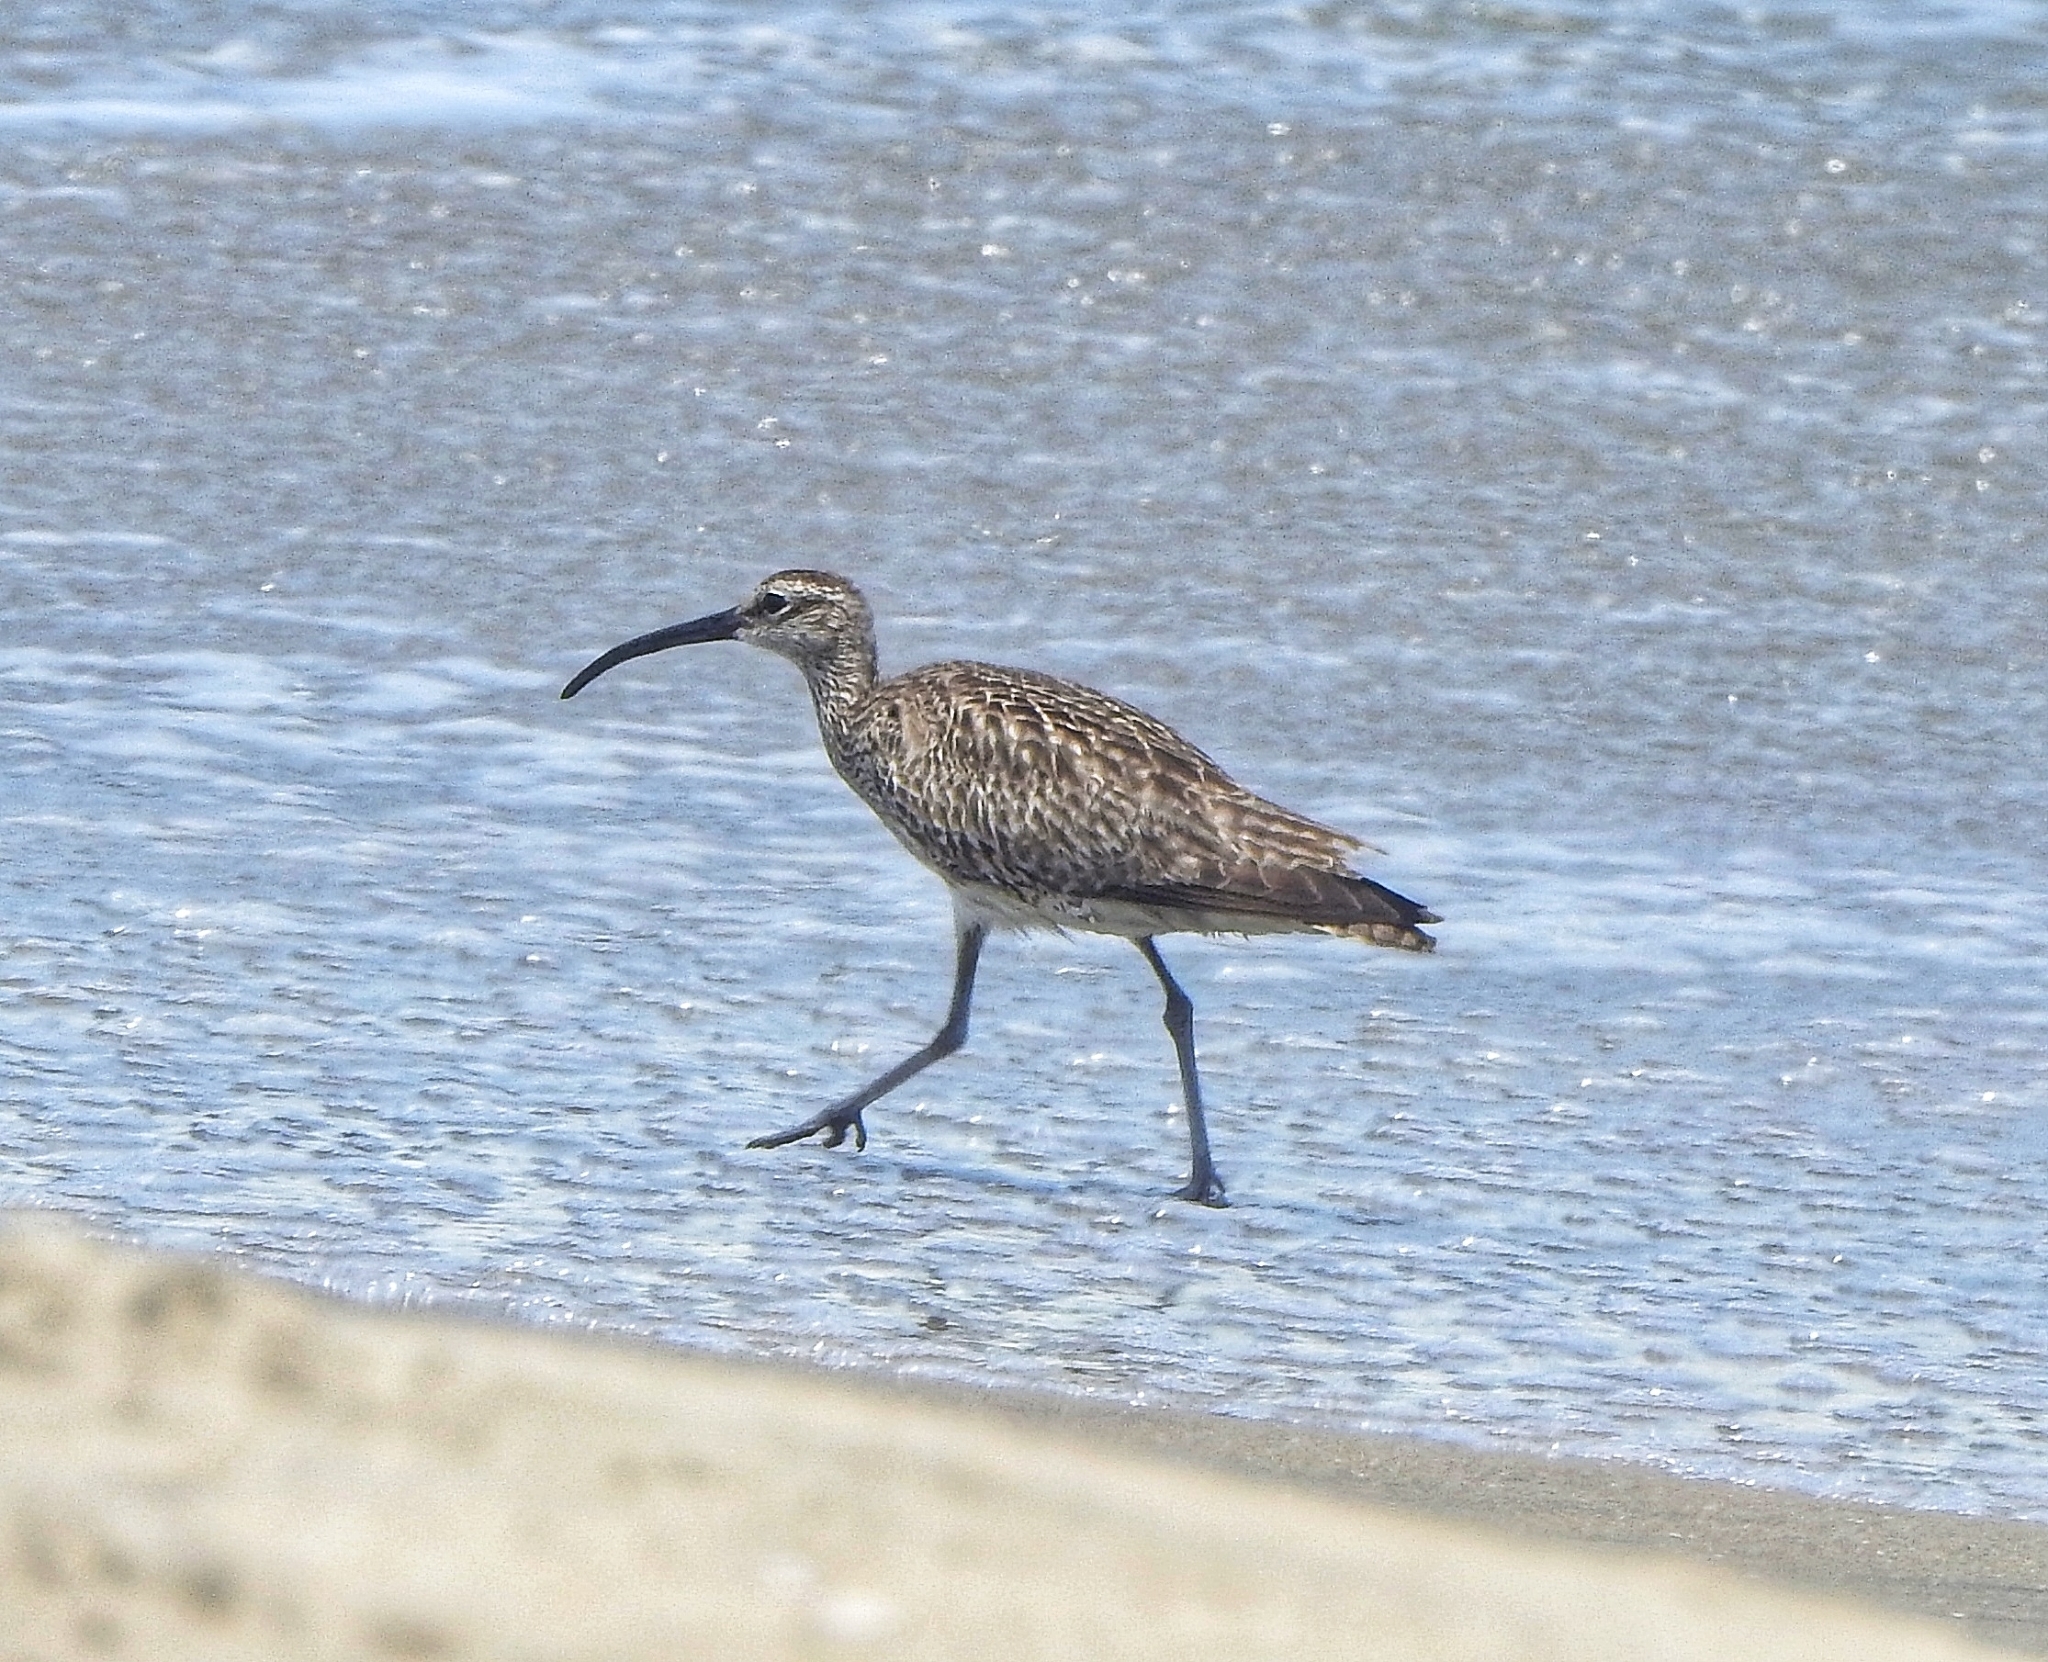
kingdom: Animalia
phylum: Chordata
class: Aves
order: Charadriiformes
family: Scolopacidae
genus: Numenius
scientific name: Numenius phaeopus
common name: Whimbrel
